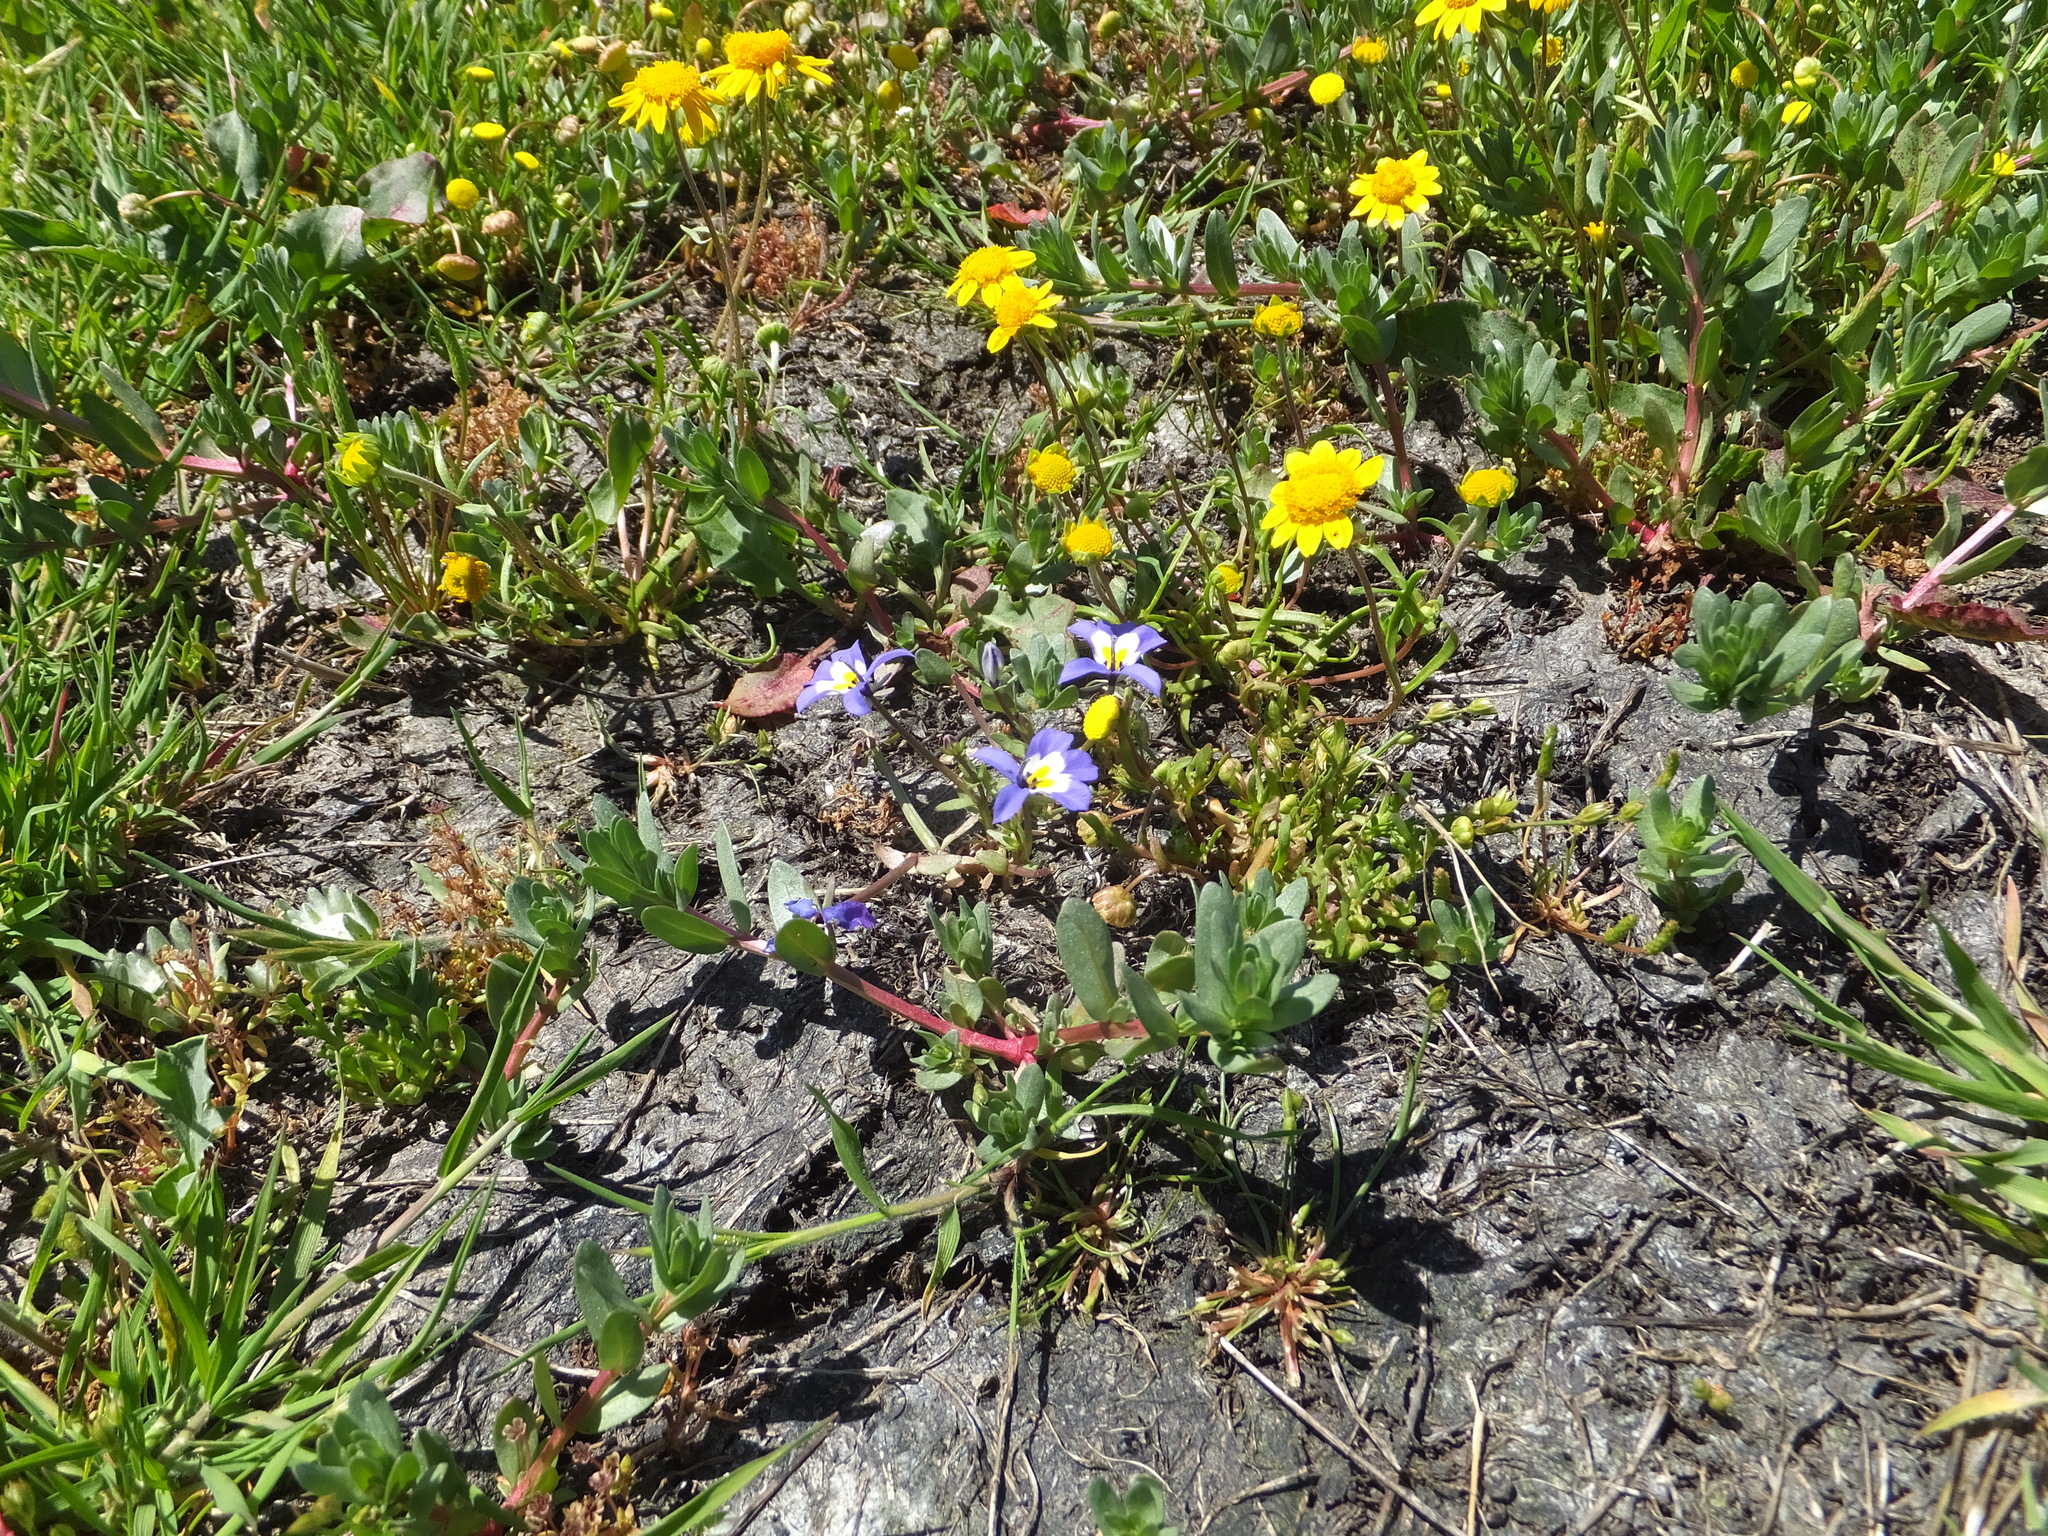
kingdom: Plantae
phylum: Tracheophyta
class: Magnoliopsida
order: Asterales
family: Asteraceae
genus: Lasthenia
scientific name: Lasthenia conjugens
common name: Contra costa goldfields
